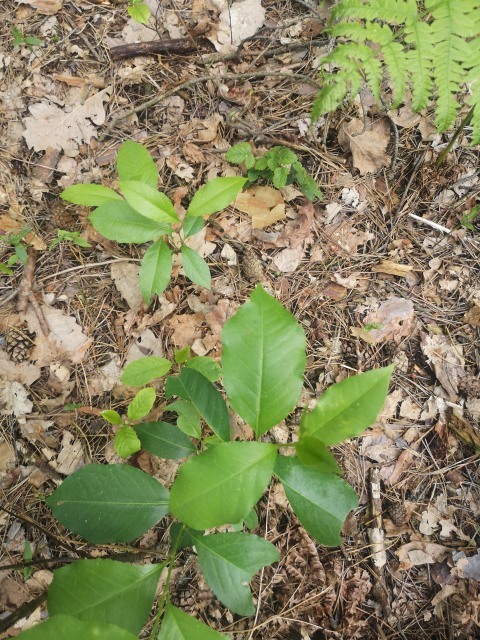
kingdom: Plantae
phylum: Tracheophyta
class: Magnoliopsida
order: Rosales
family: Rosaceae
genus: Prunus
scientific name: Prunus serotina
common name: Black cherry
